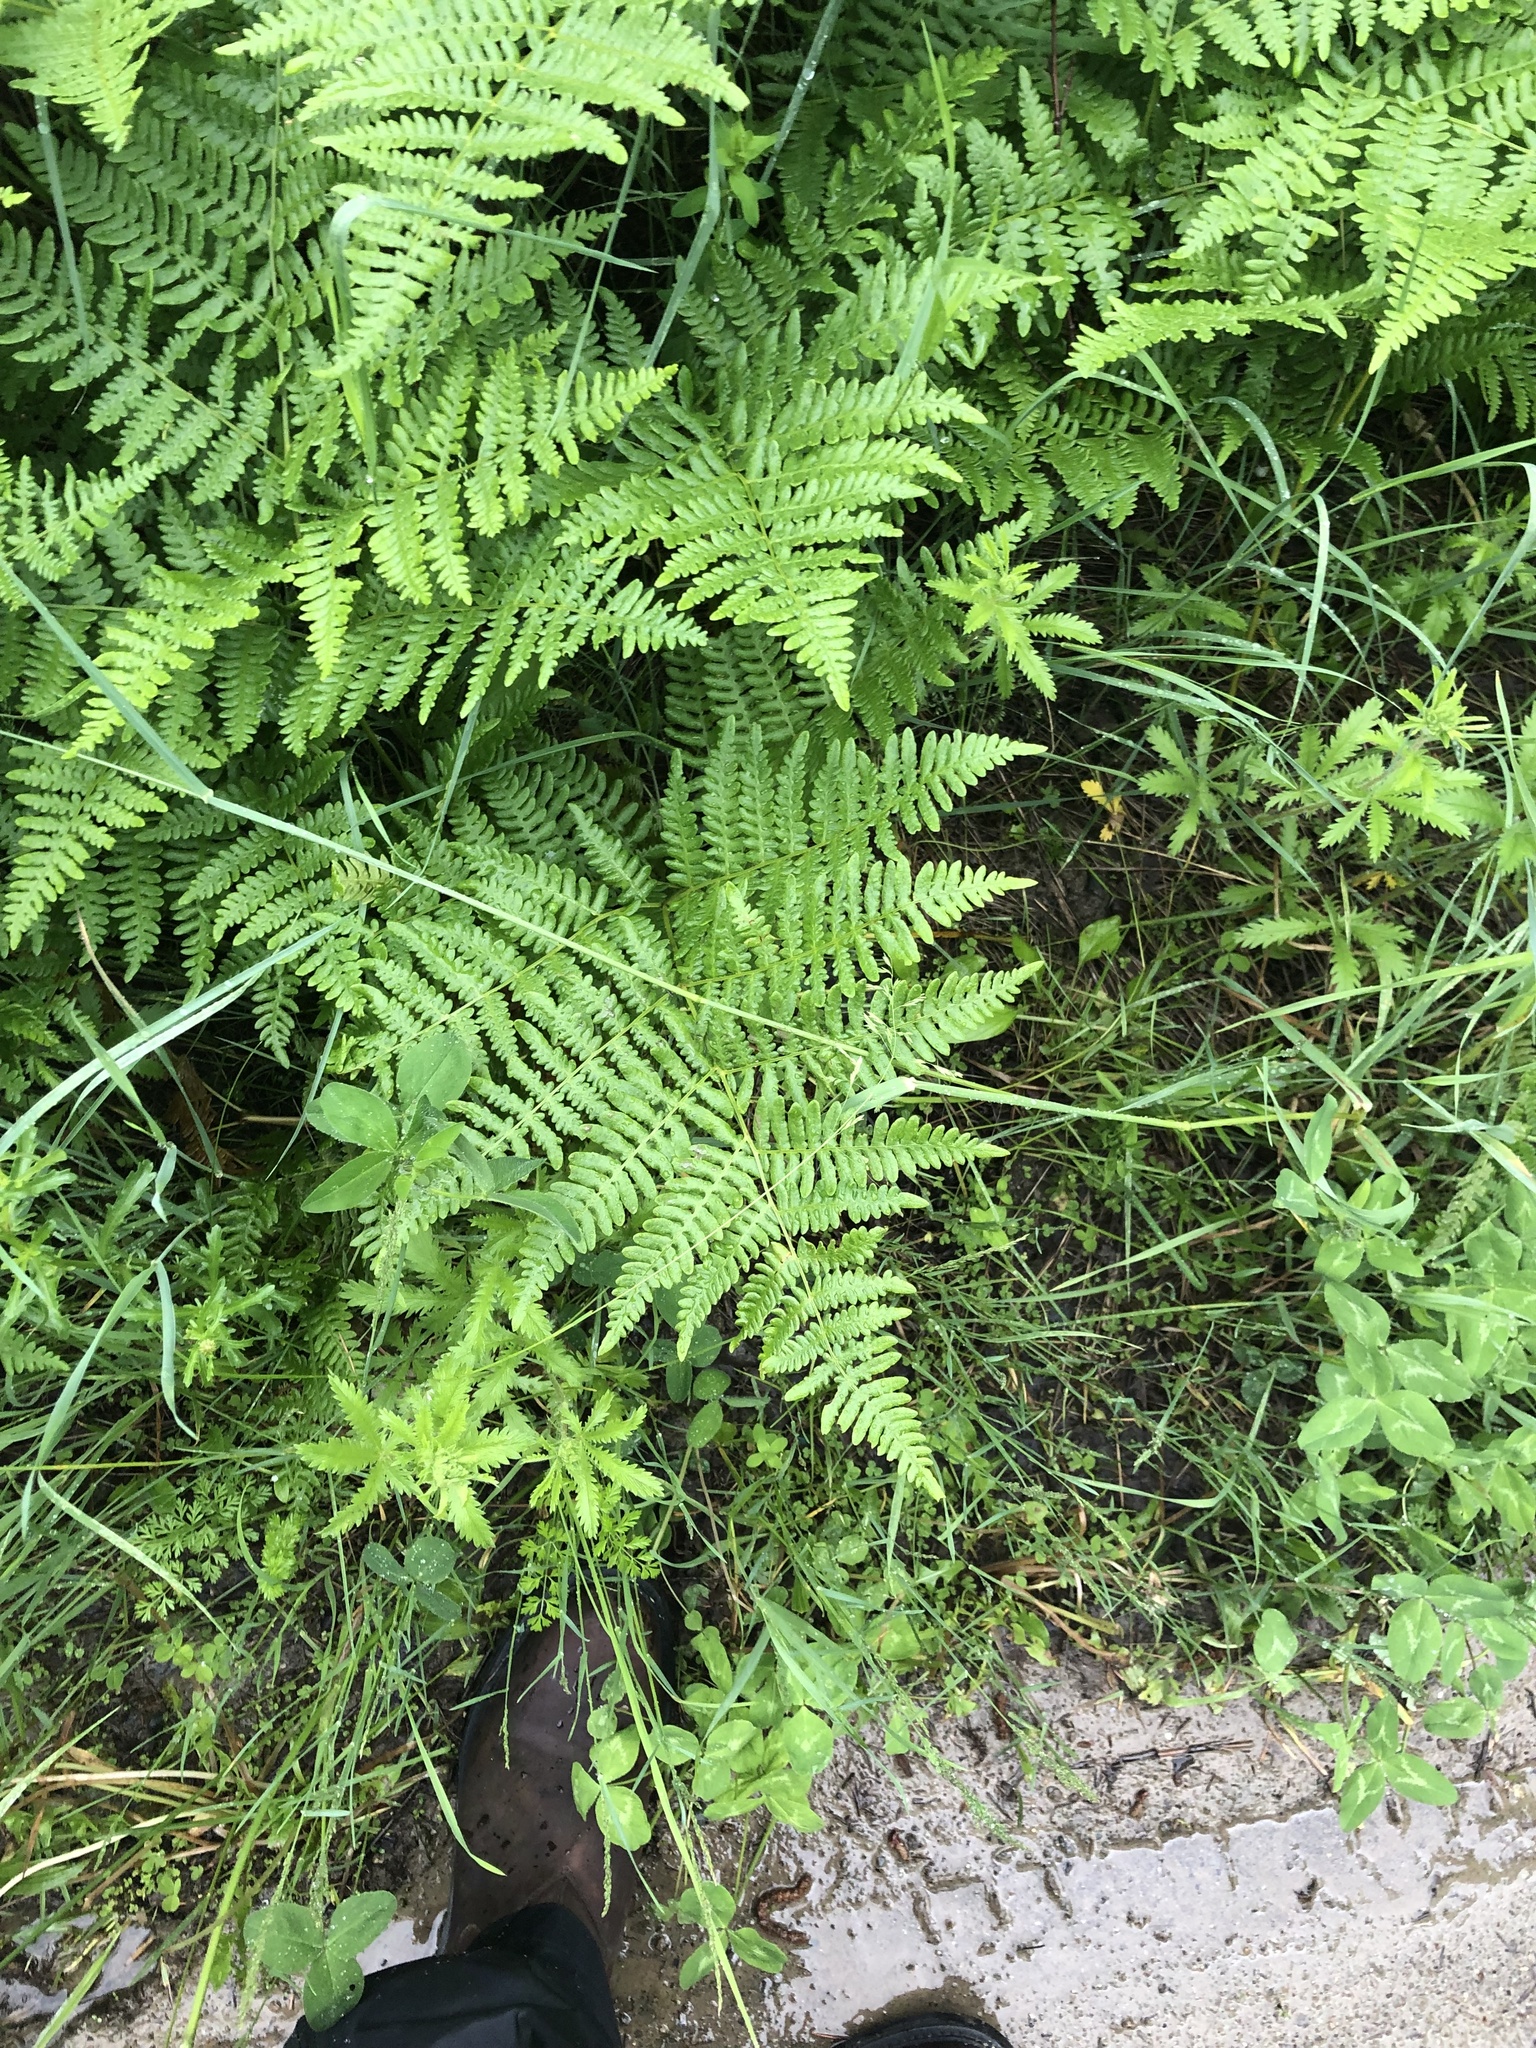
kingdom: Plantae
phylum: Tracheophyta
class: Polypodiopsida
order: Polypodiales
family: Dennstaedtiaceae
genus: Pteridium
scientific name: Pteridium aquilinum
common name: Bracken
